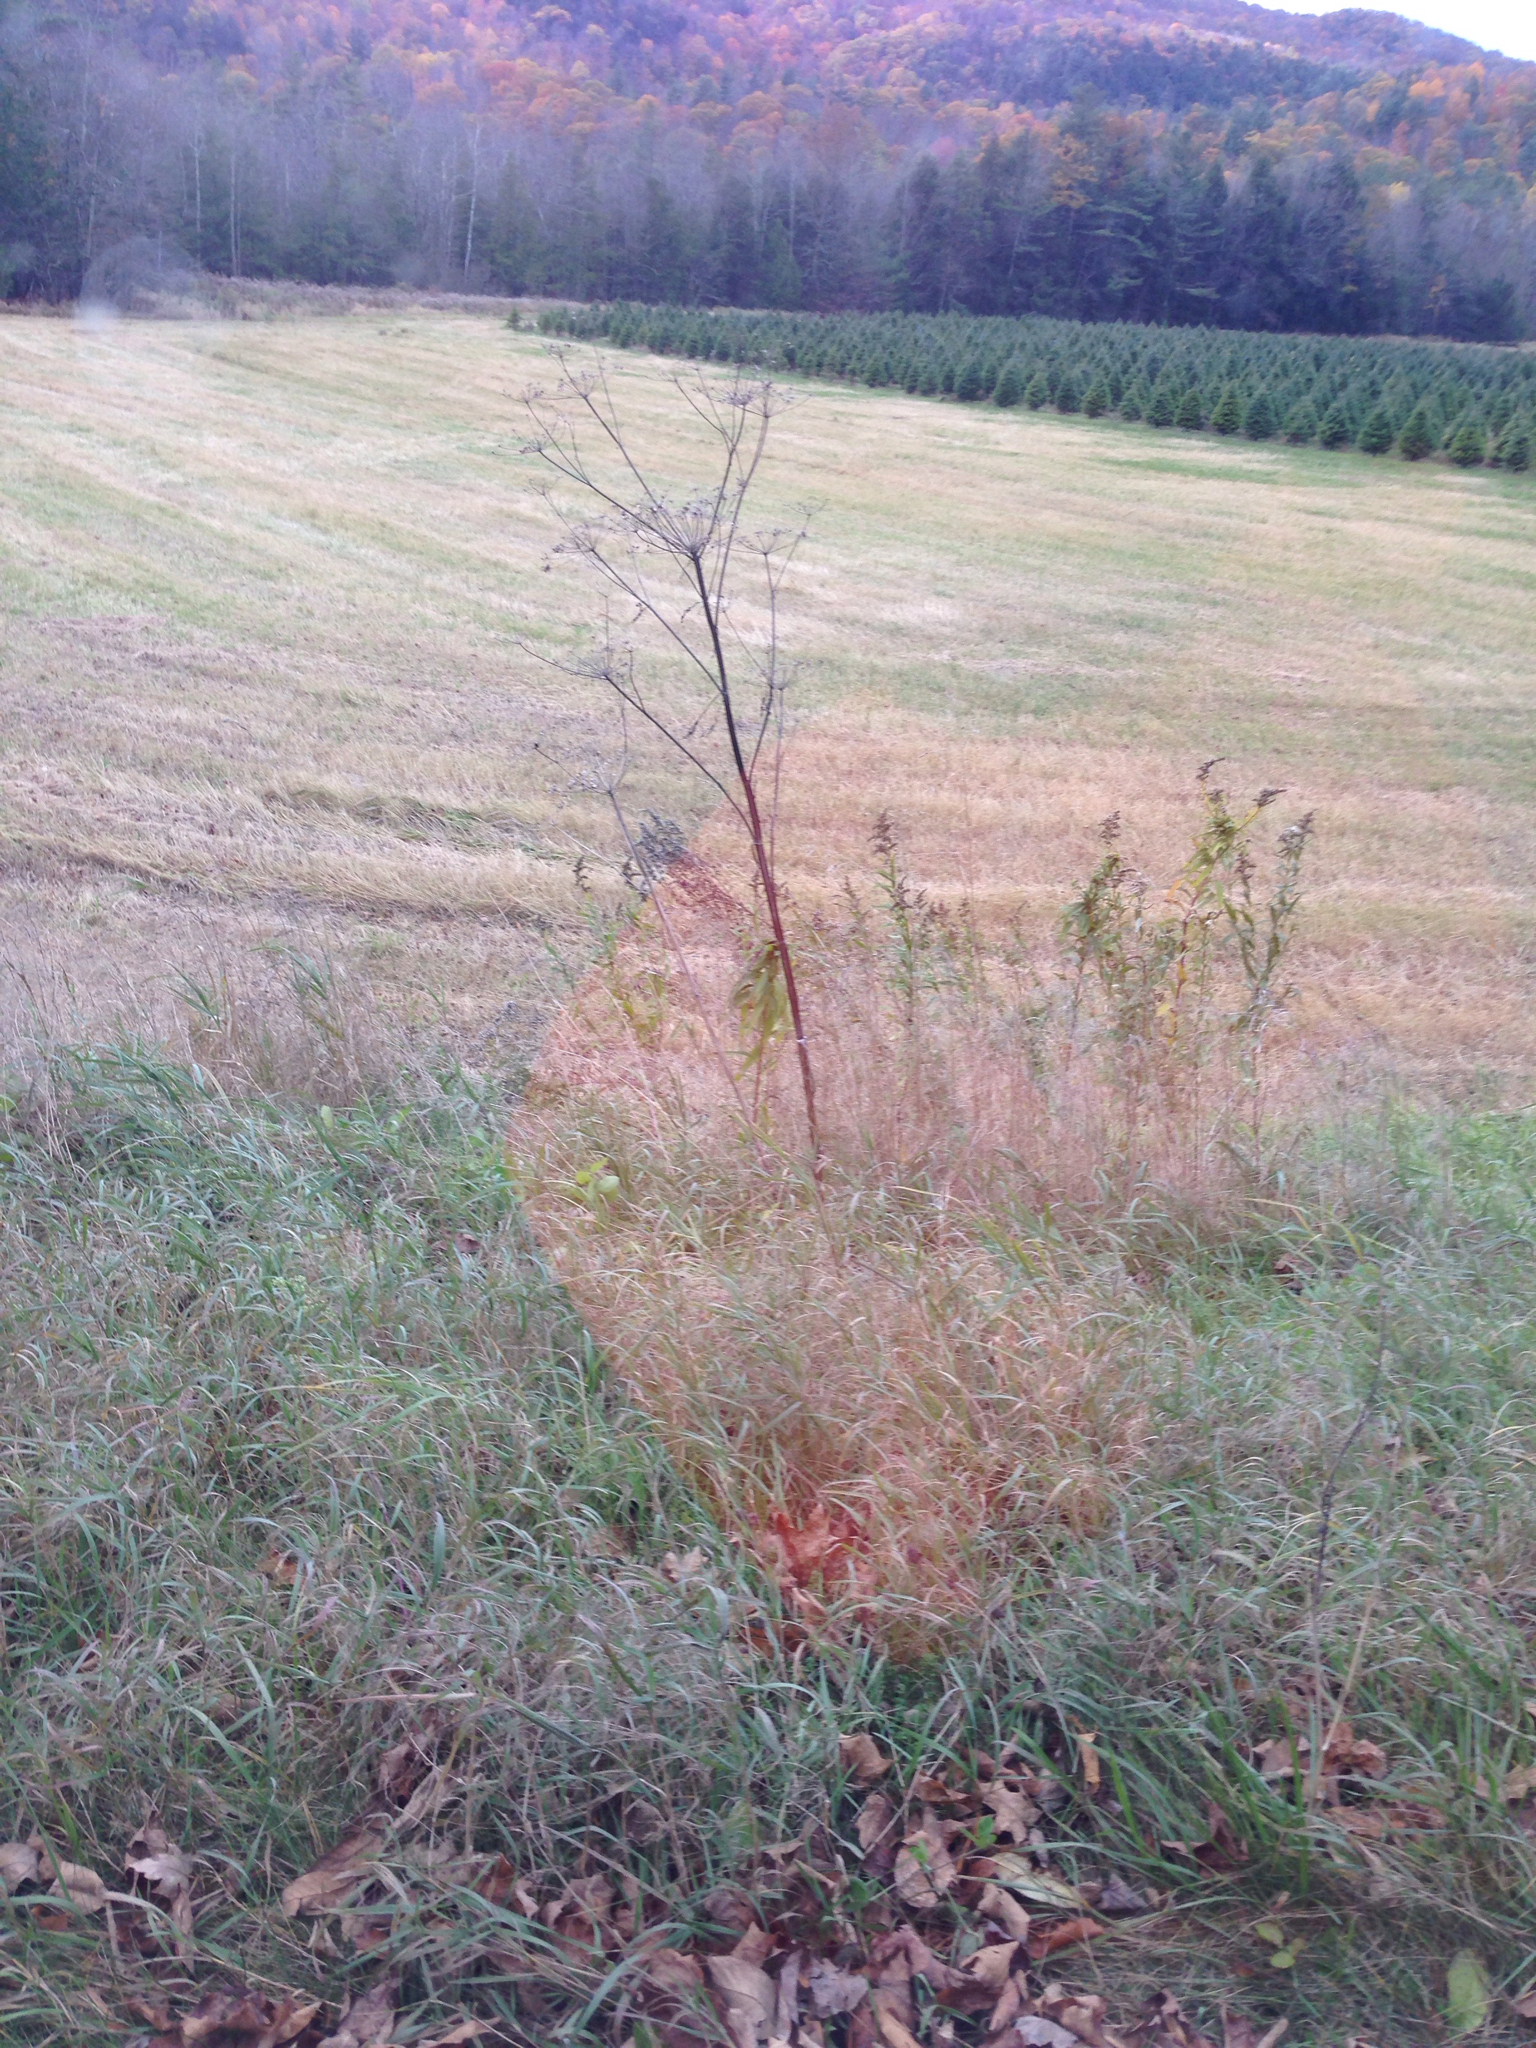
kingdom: Plantae
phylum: Tracheophyta
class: Magnoliopsida
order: Apiales
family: Apiaceae
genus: Pastinaca
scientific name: Pastinaca sativa
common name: Wild parsnip
